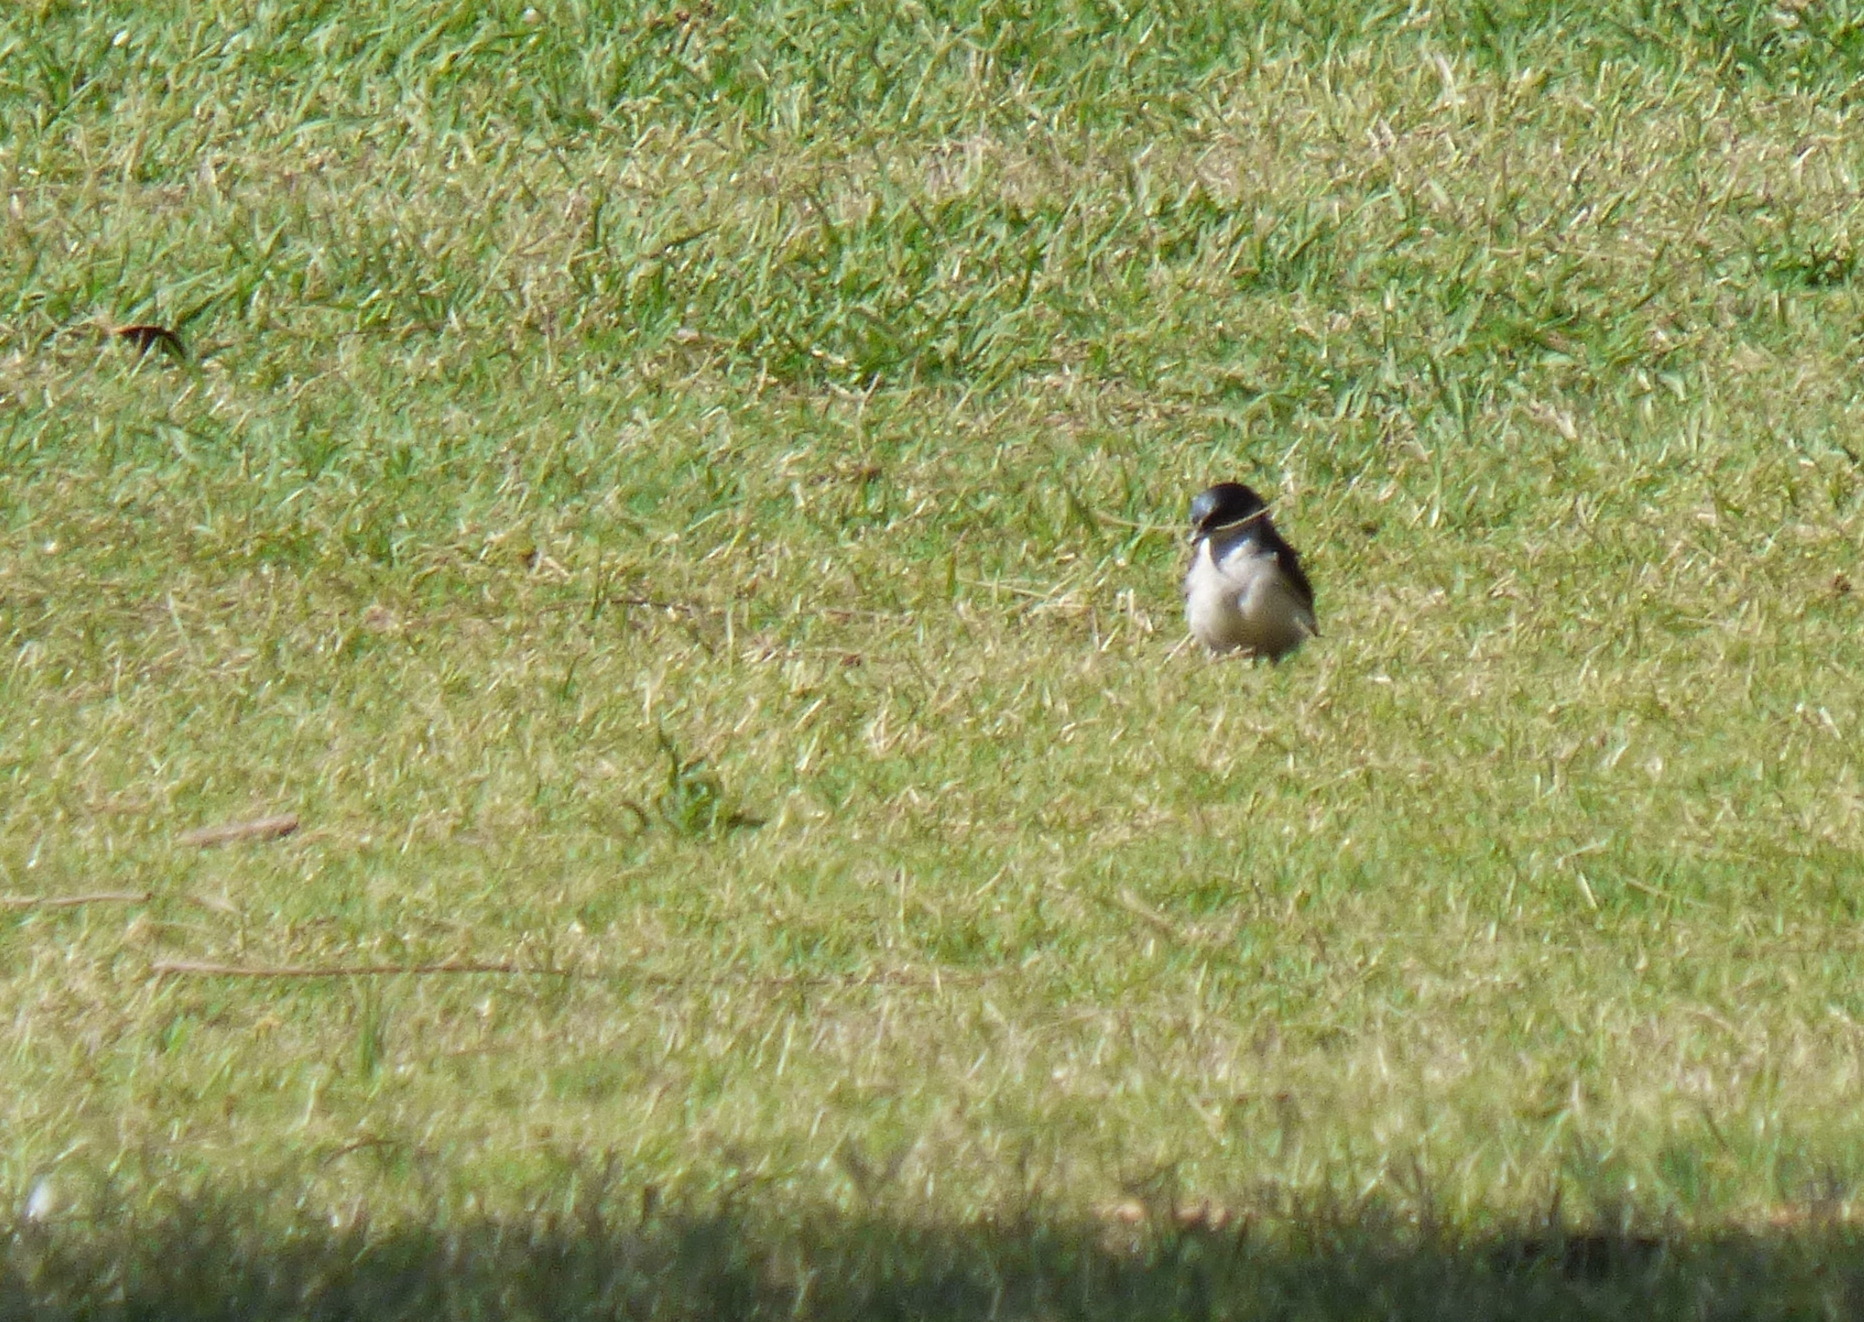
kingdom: Animalia
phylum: Chordata
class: Aves
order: Passeriformes
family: Hirundinidae
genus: Tachycineta
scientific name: Tachycineta leucorrhoa
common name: White-rumped swallow
